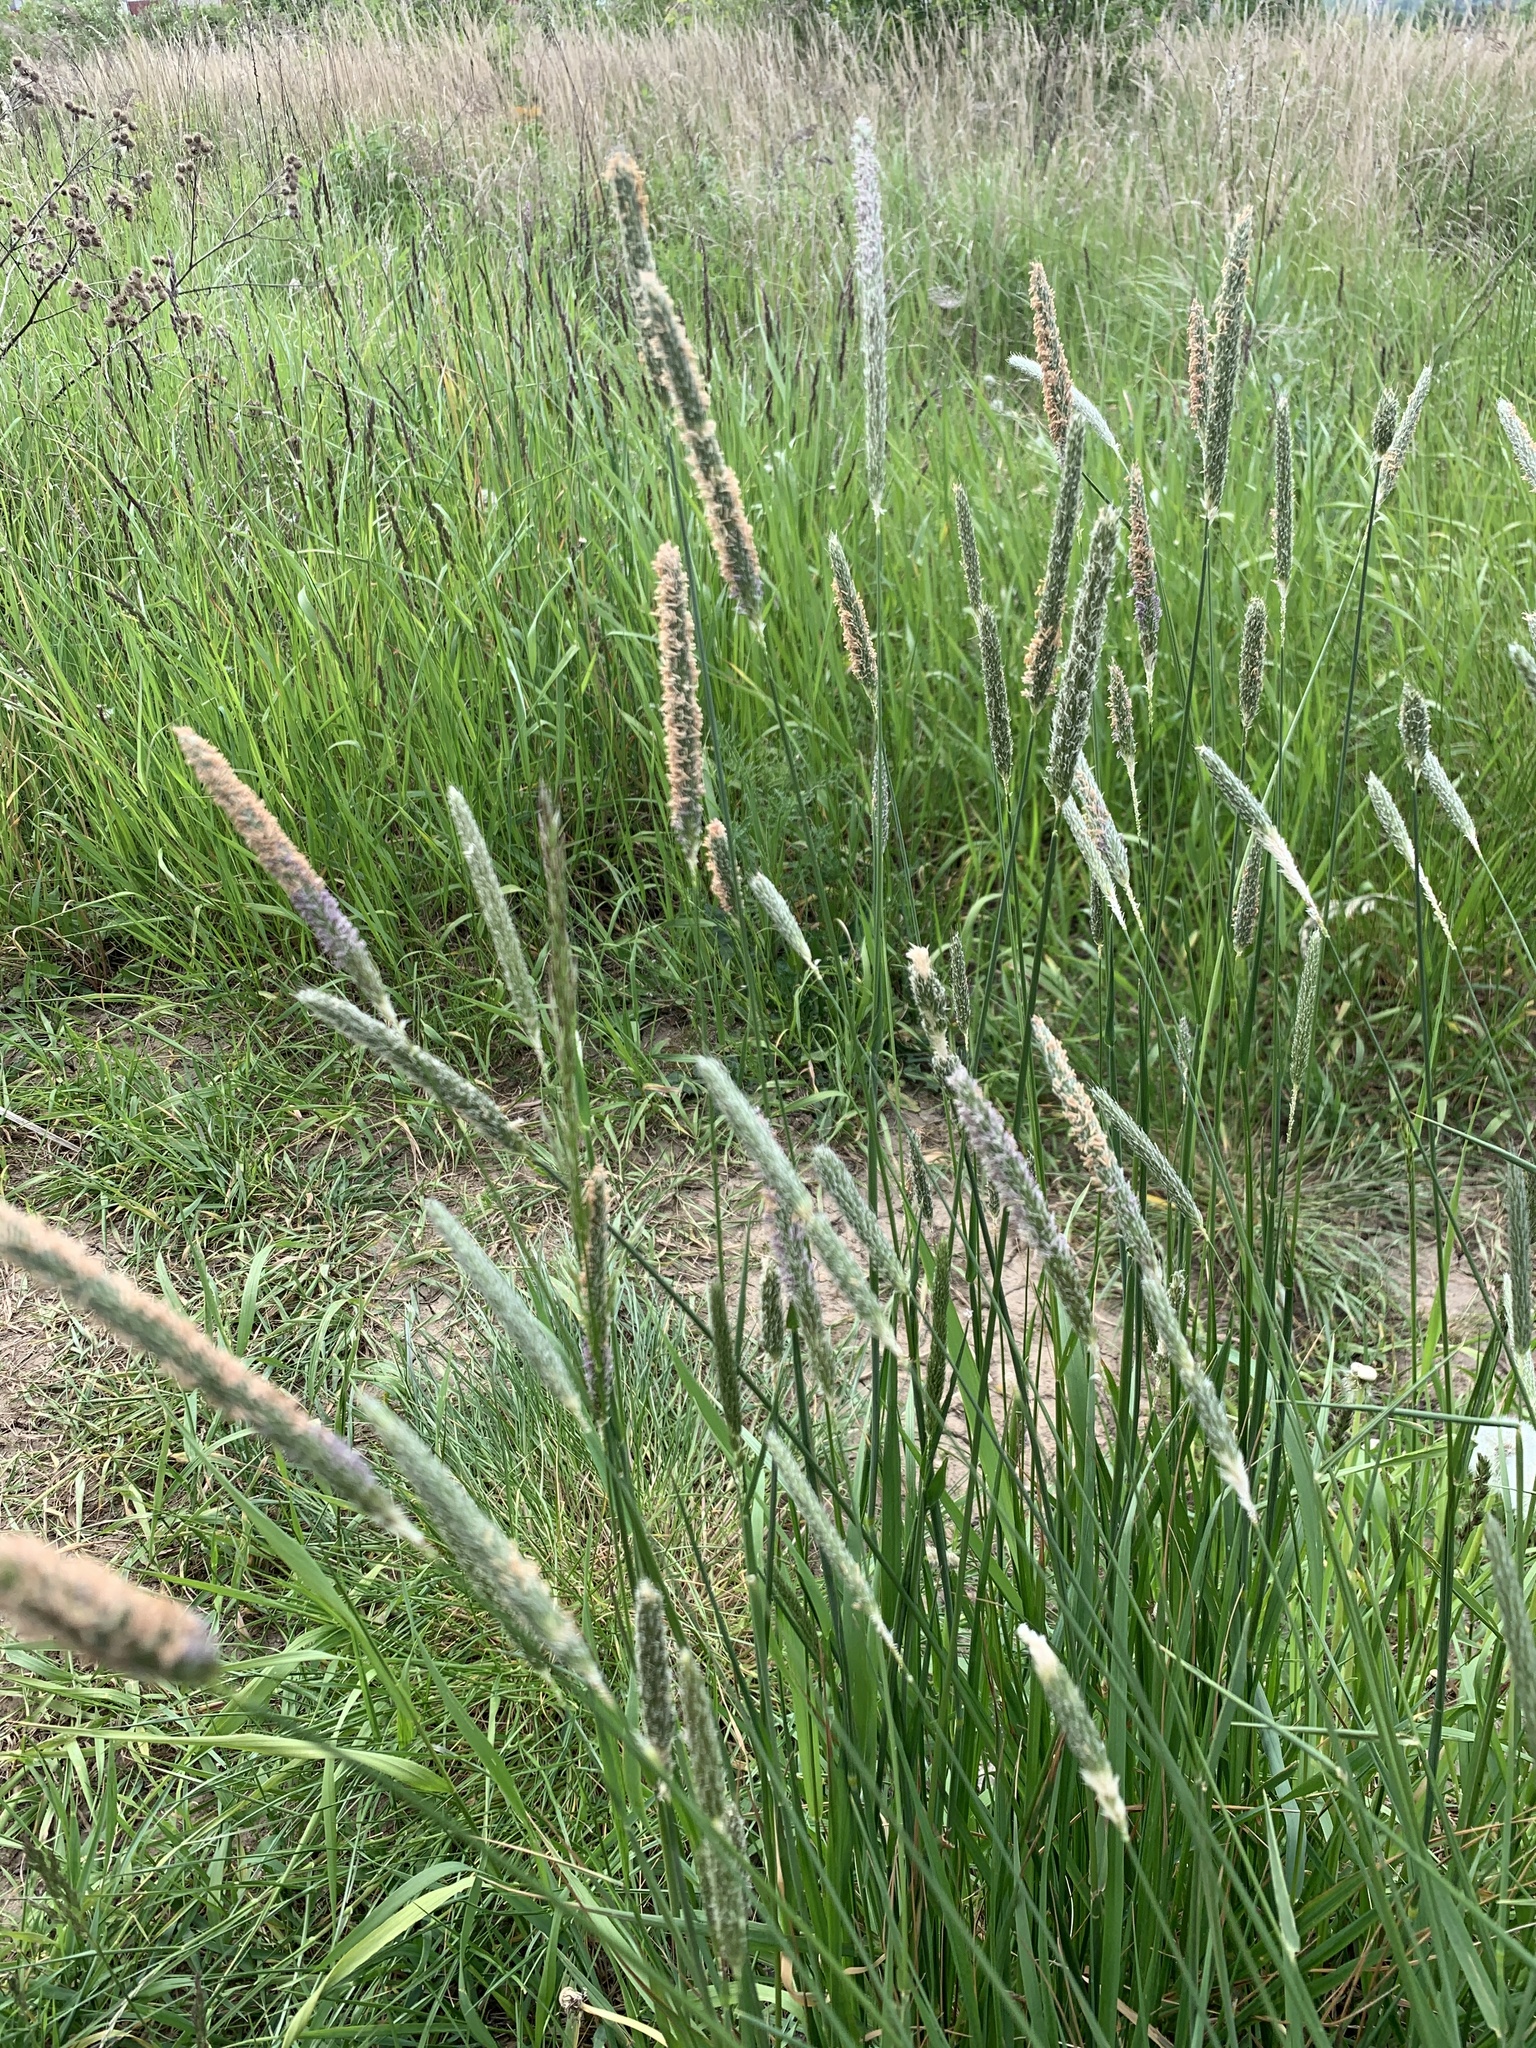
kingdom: Plantae
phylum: Tracheophyta
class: Liliopsida
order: Poales
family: Poaceae
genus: Alopecurus
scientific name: Alopecurus pratensis
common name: Meadow foxtail
